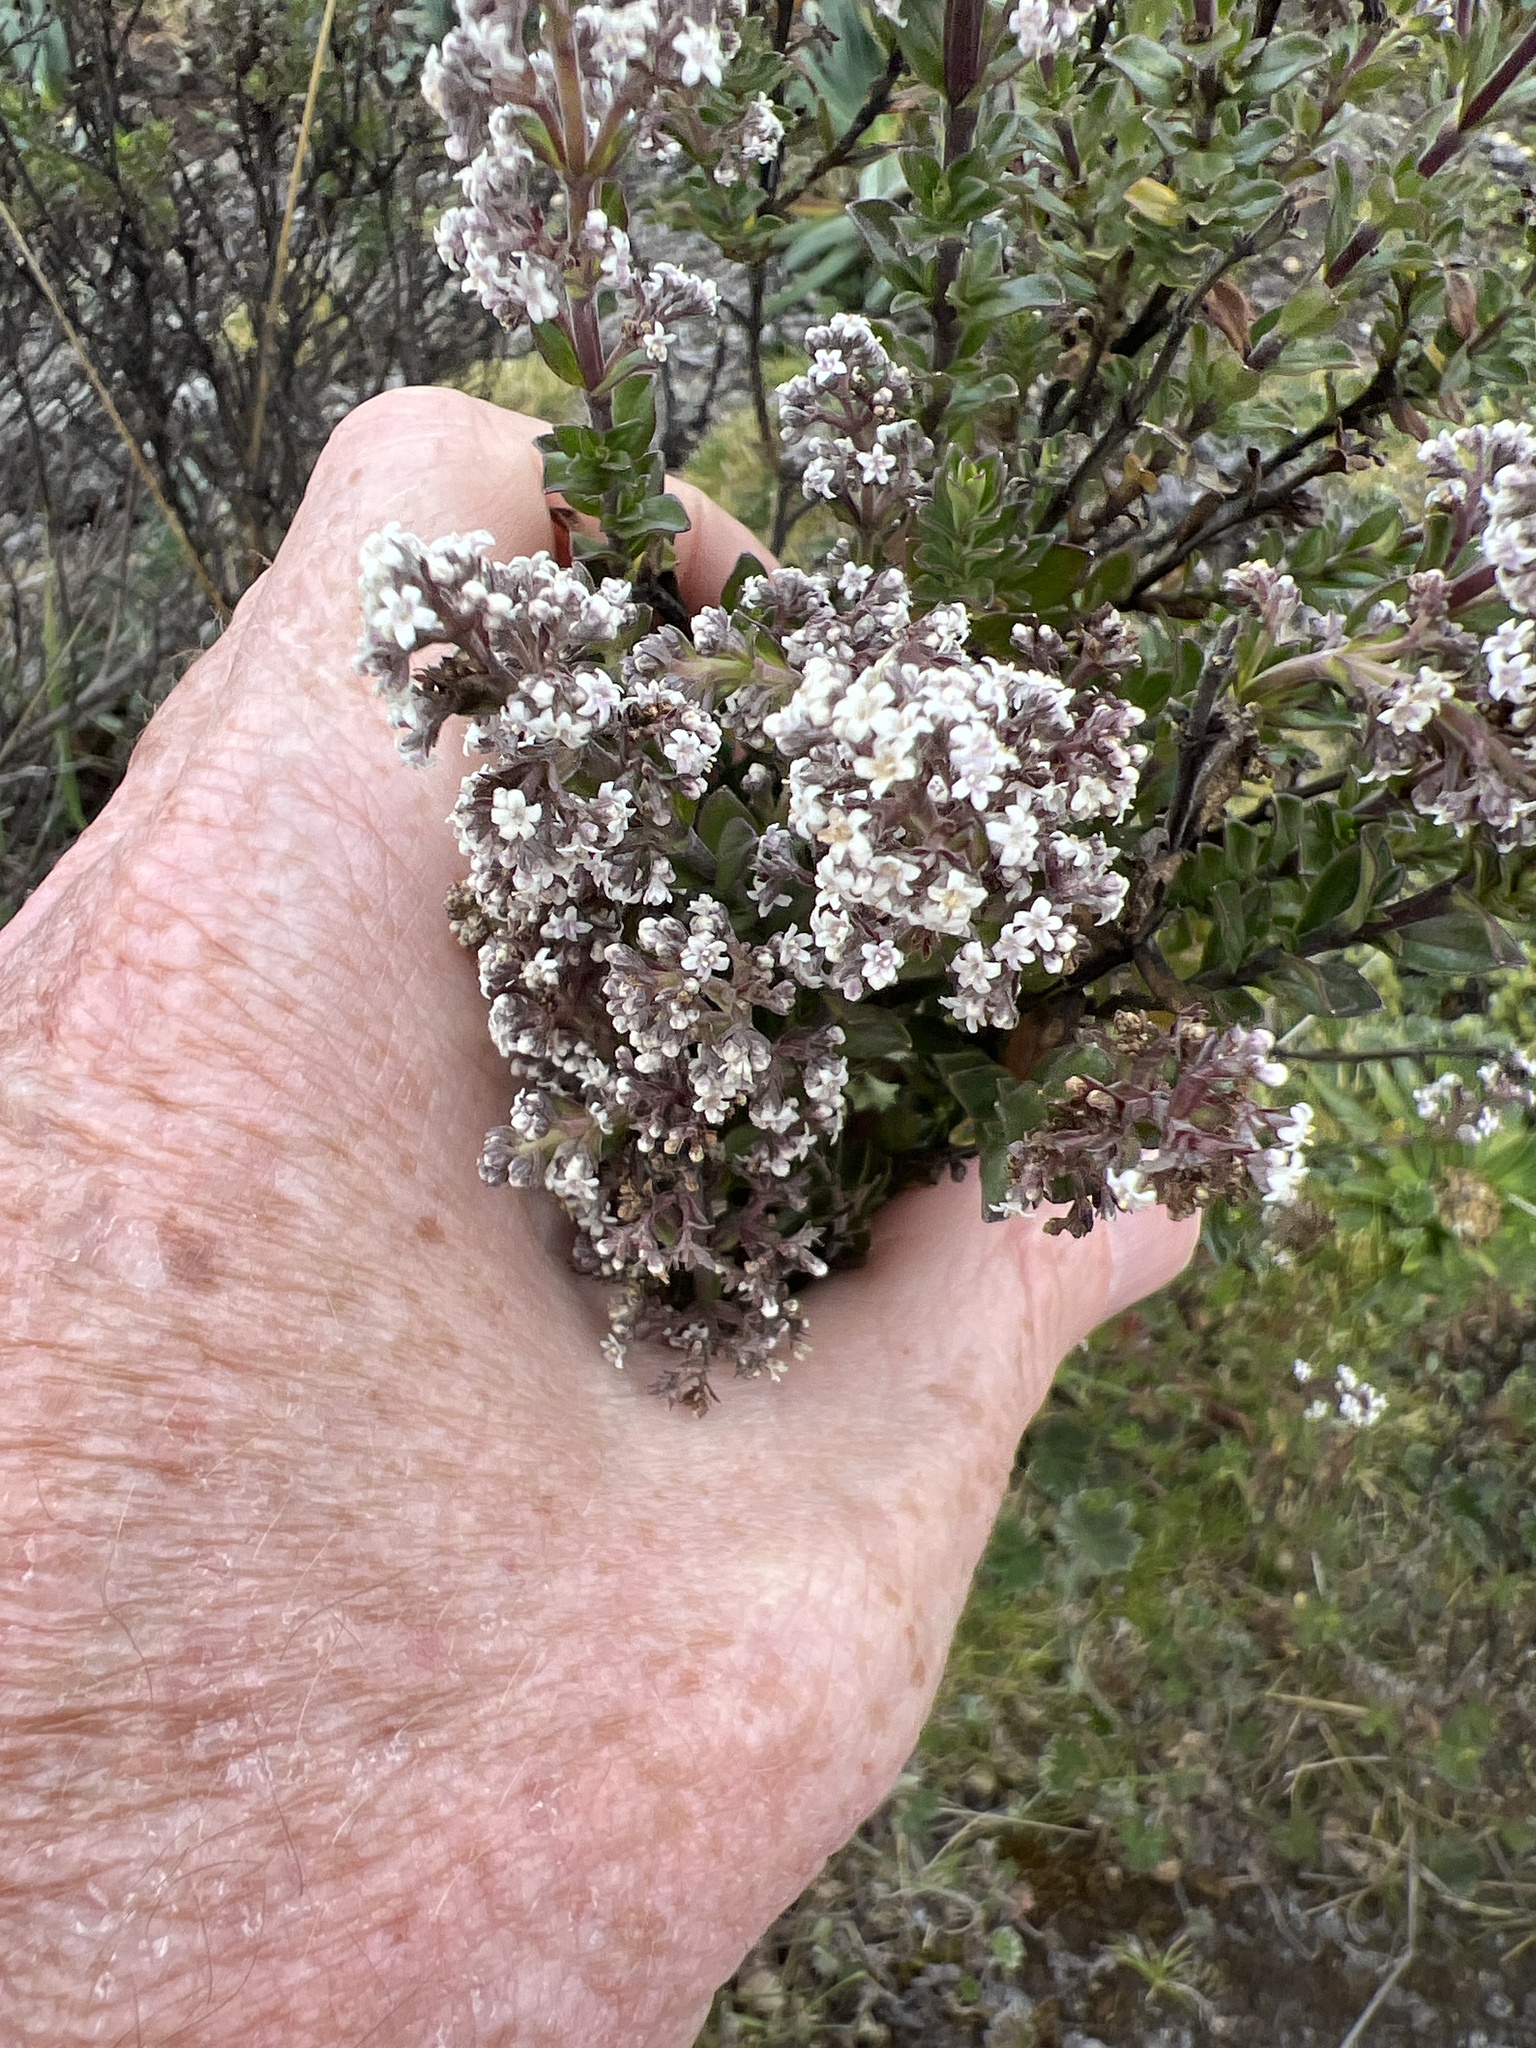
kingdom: Plantae
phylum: Tracheophyta
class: Magnoliopsida
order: Dipsacales
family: Caprifoliaceae
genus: Valeriana
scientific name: Valeriana microphylla
